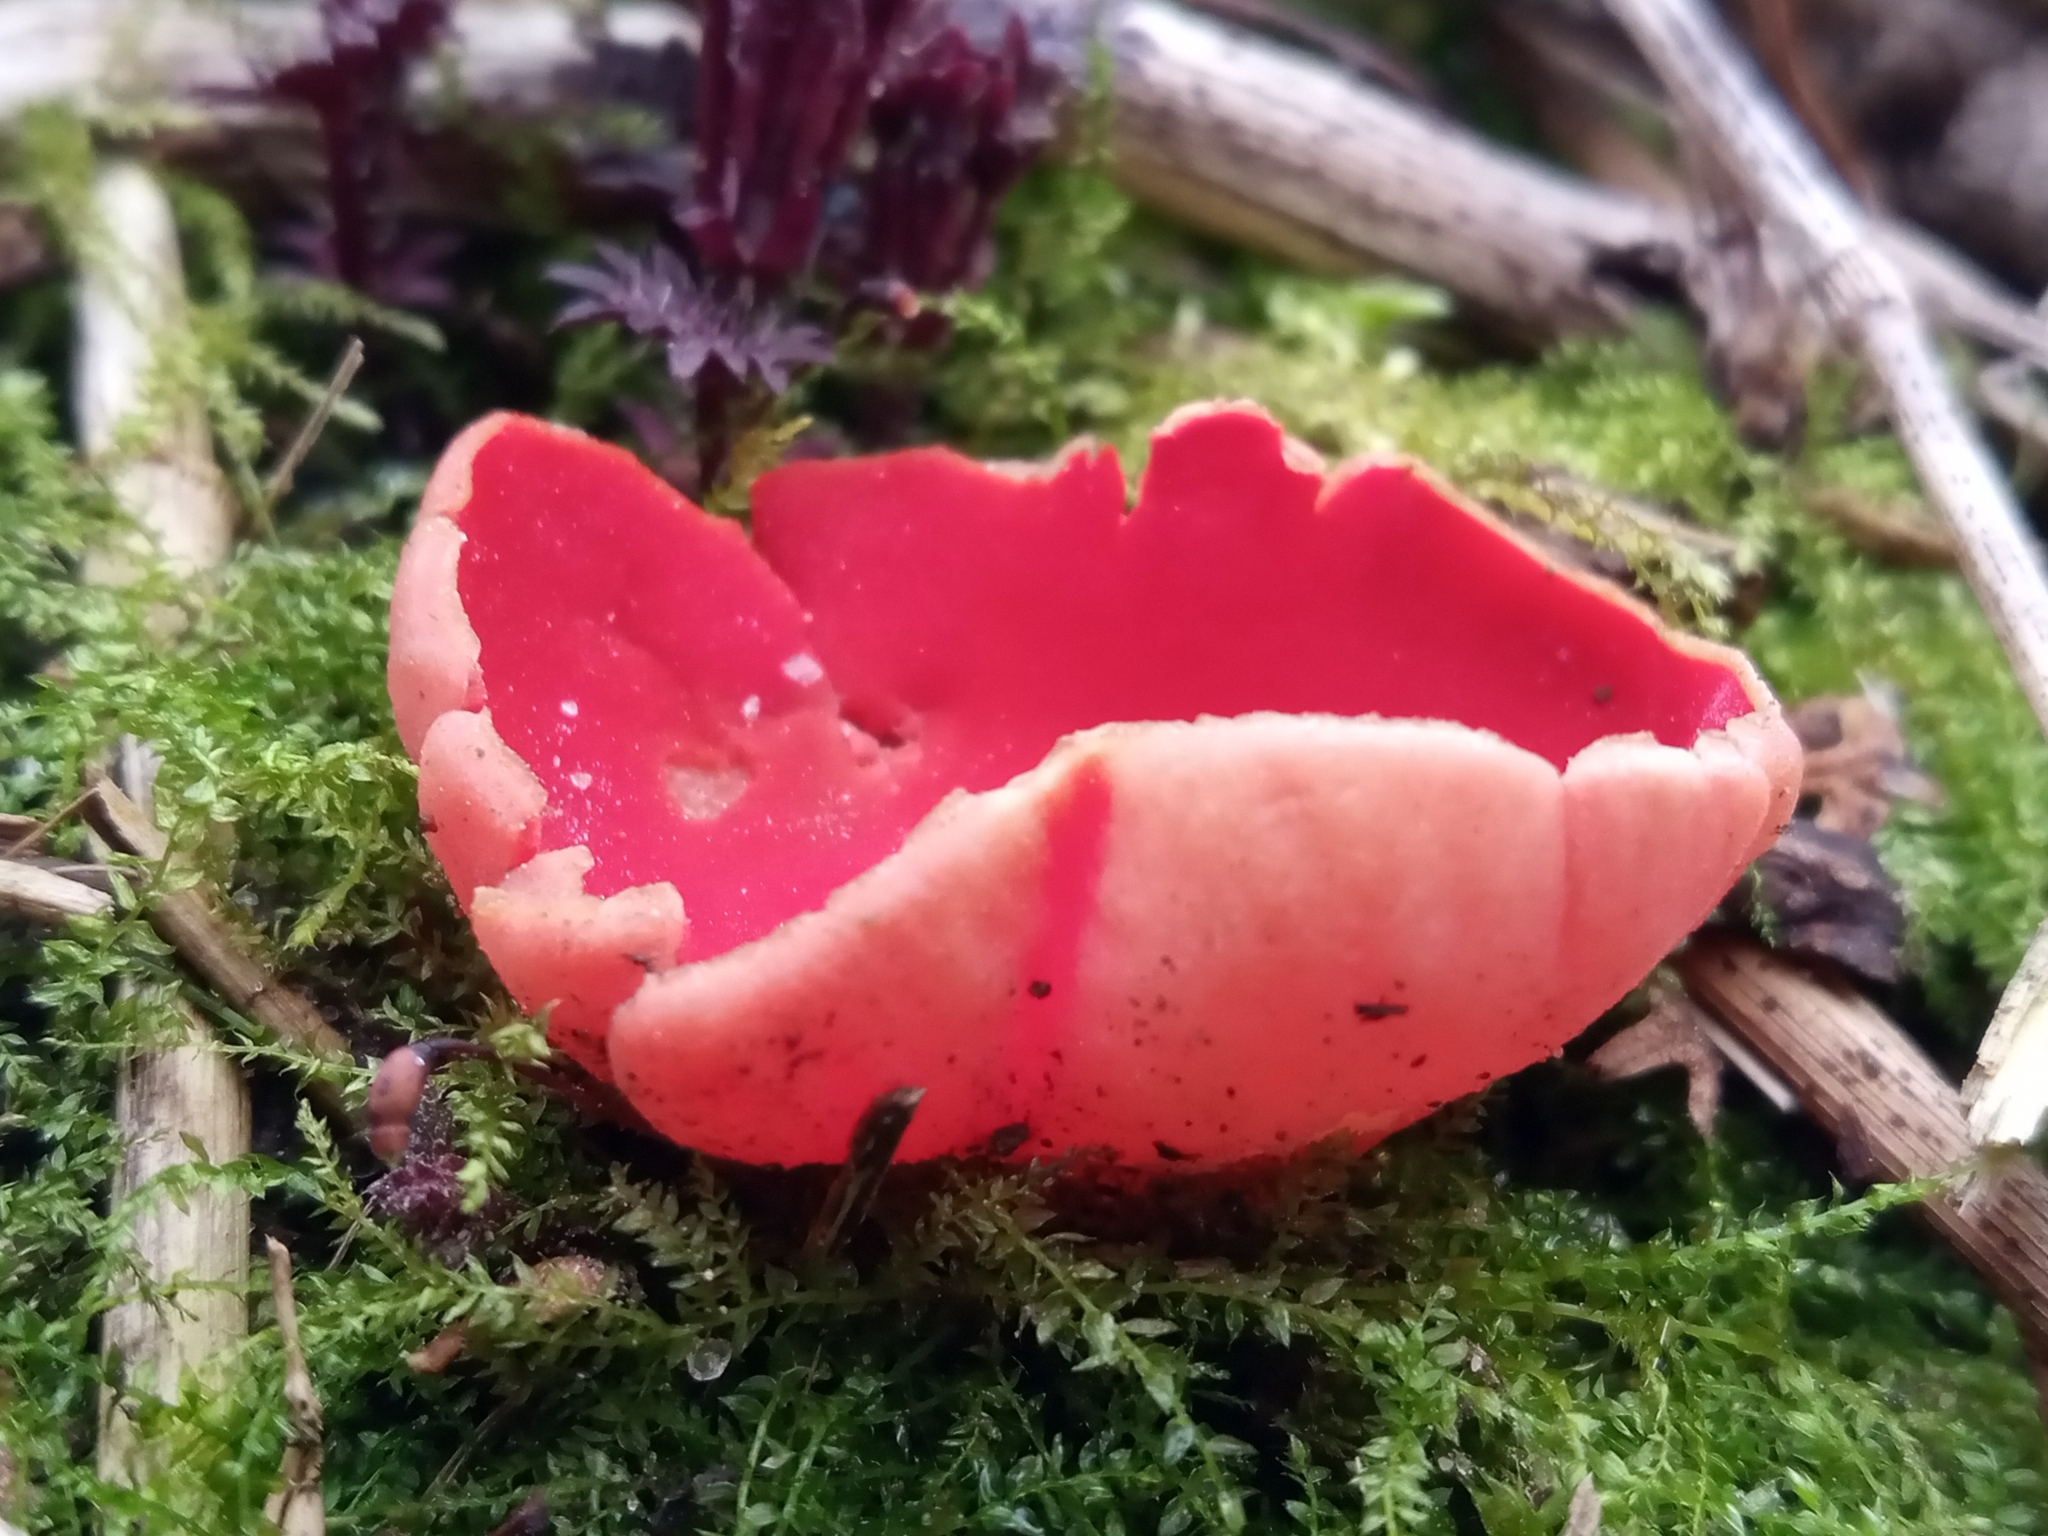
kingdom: Fungi
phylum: Ascomycota
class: Pezizomycetes
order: Pezizales
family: Sarcoscyphaceae
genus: Sarcoscypha
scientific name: Sarcoscypha austriaca
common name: Scarlet elfcup
